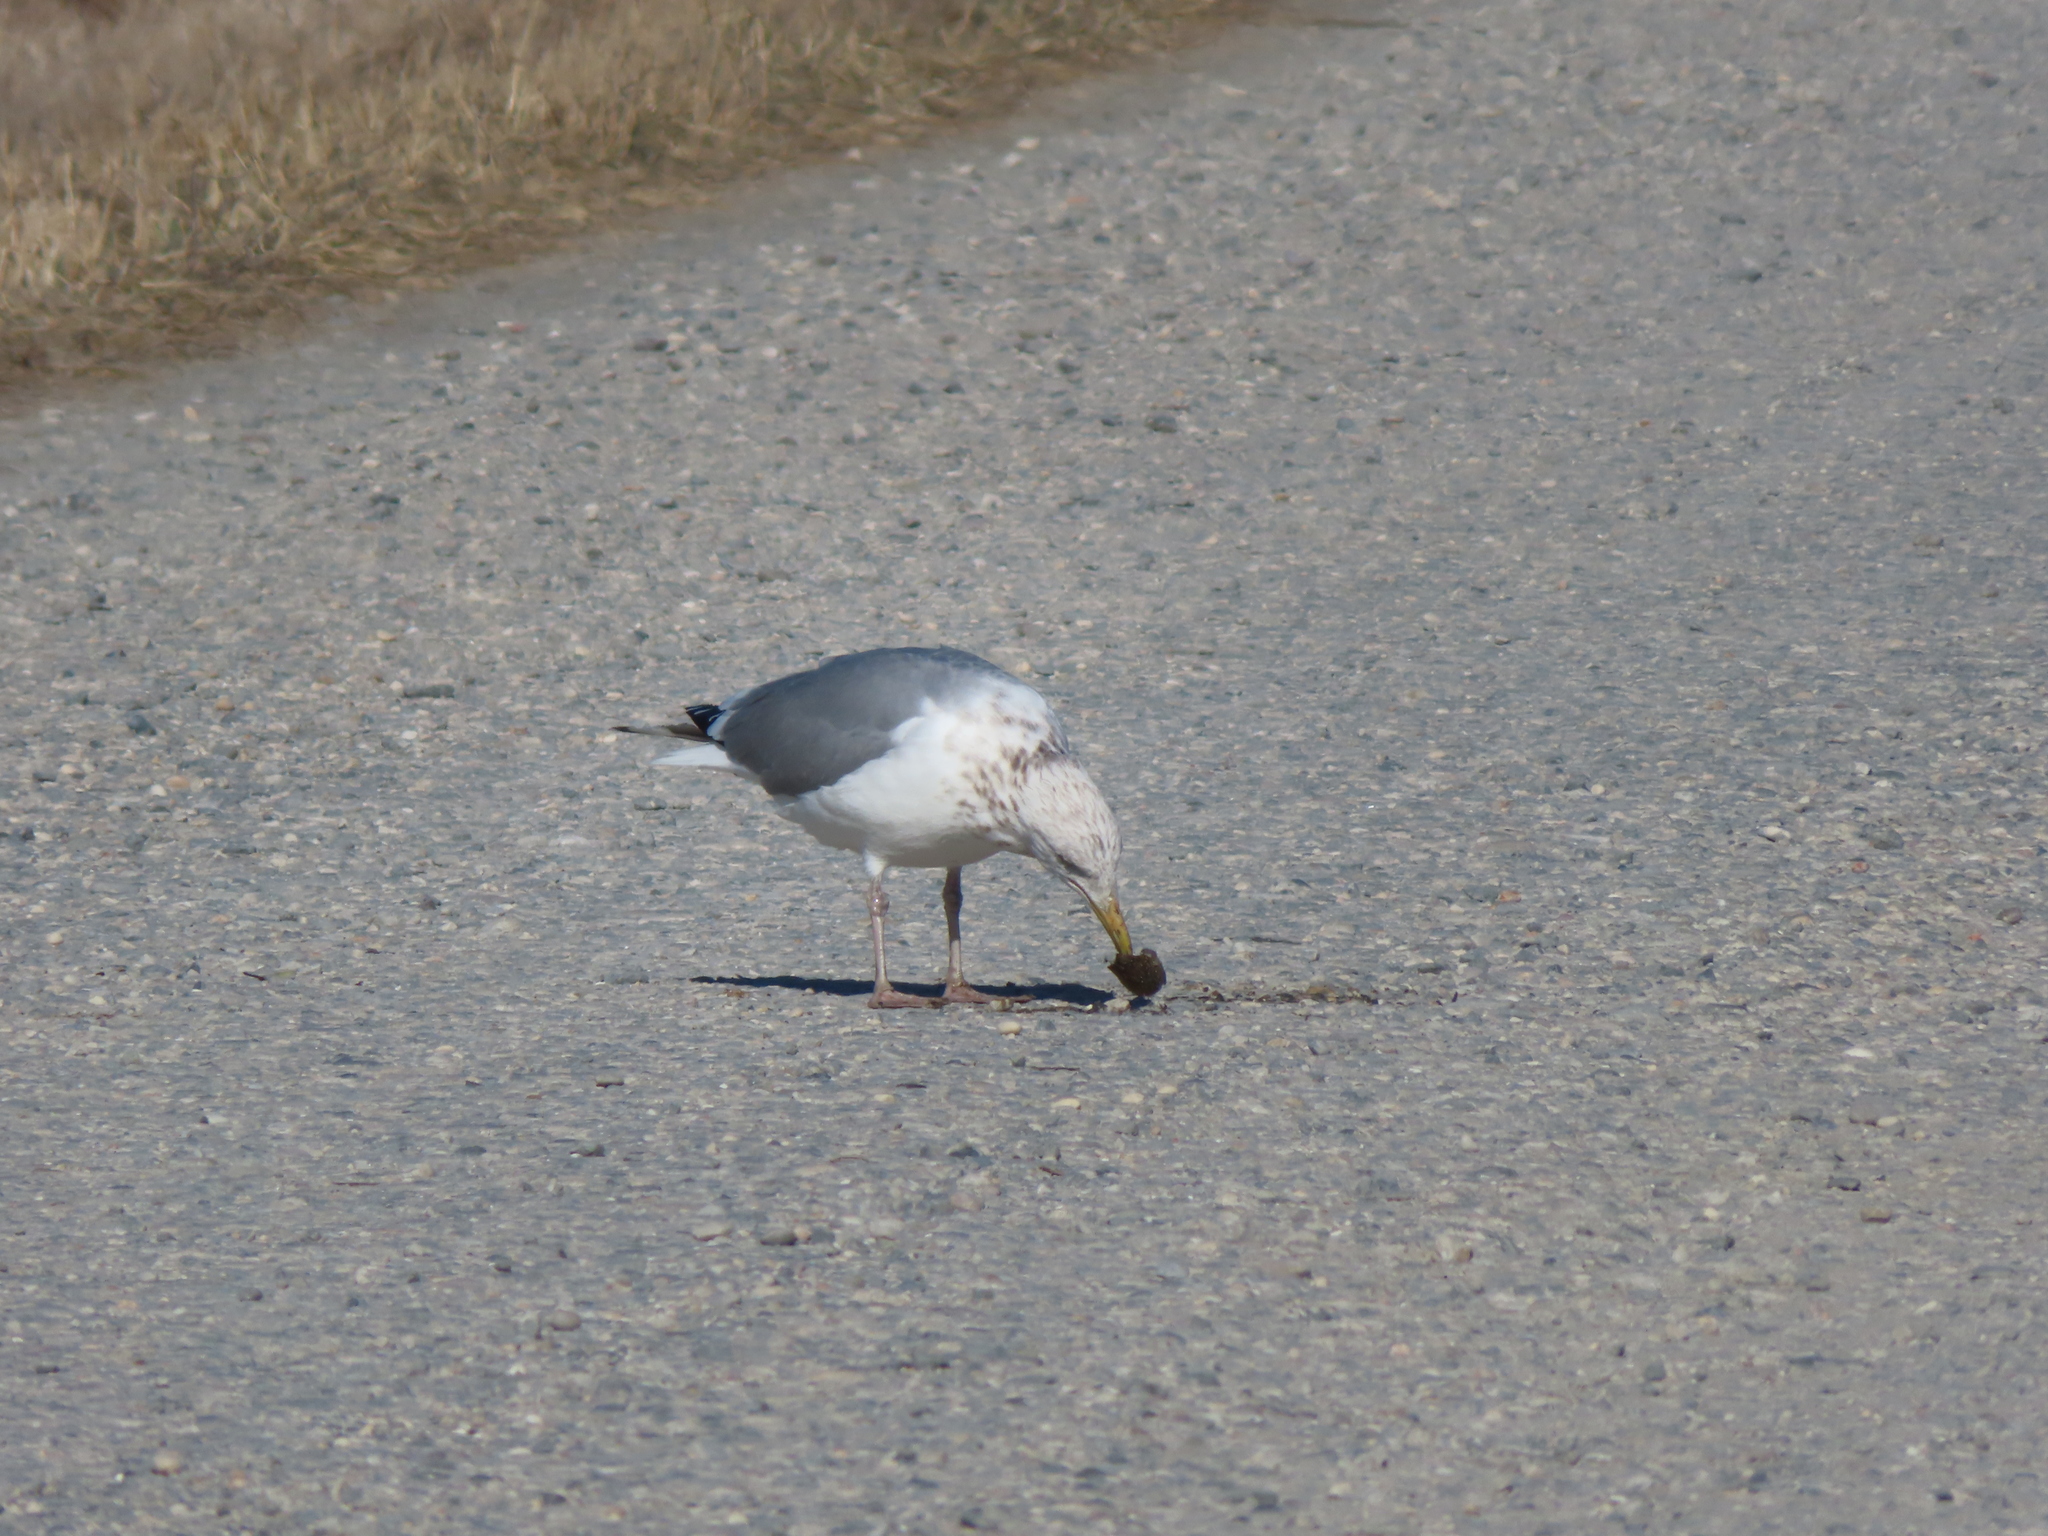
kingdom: Animalia
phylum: Chordata
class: Aves
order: Charadriiformes
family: Laridae
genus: Larus
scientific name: Larus smithsonianus
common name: American herring gull
